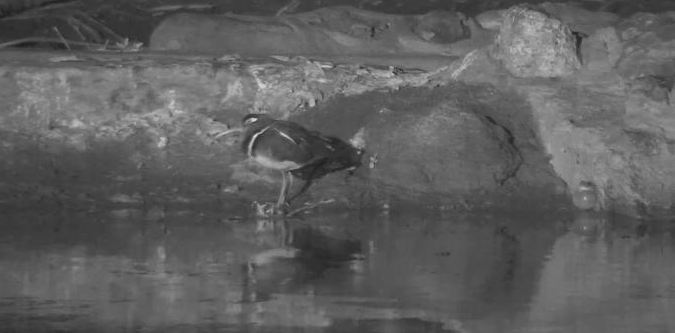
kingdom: Animalia
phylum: Chordata
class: Aves
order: Charadriiformes
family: Rostratulidae
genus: Rostratula
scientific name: Rostratula benghalensis
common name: Greater painted-snipe
